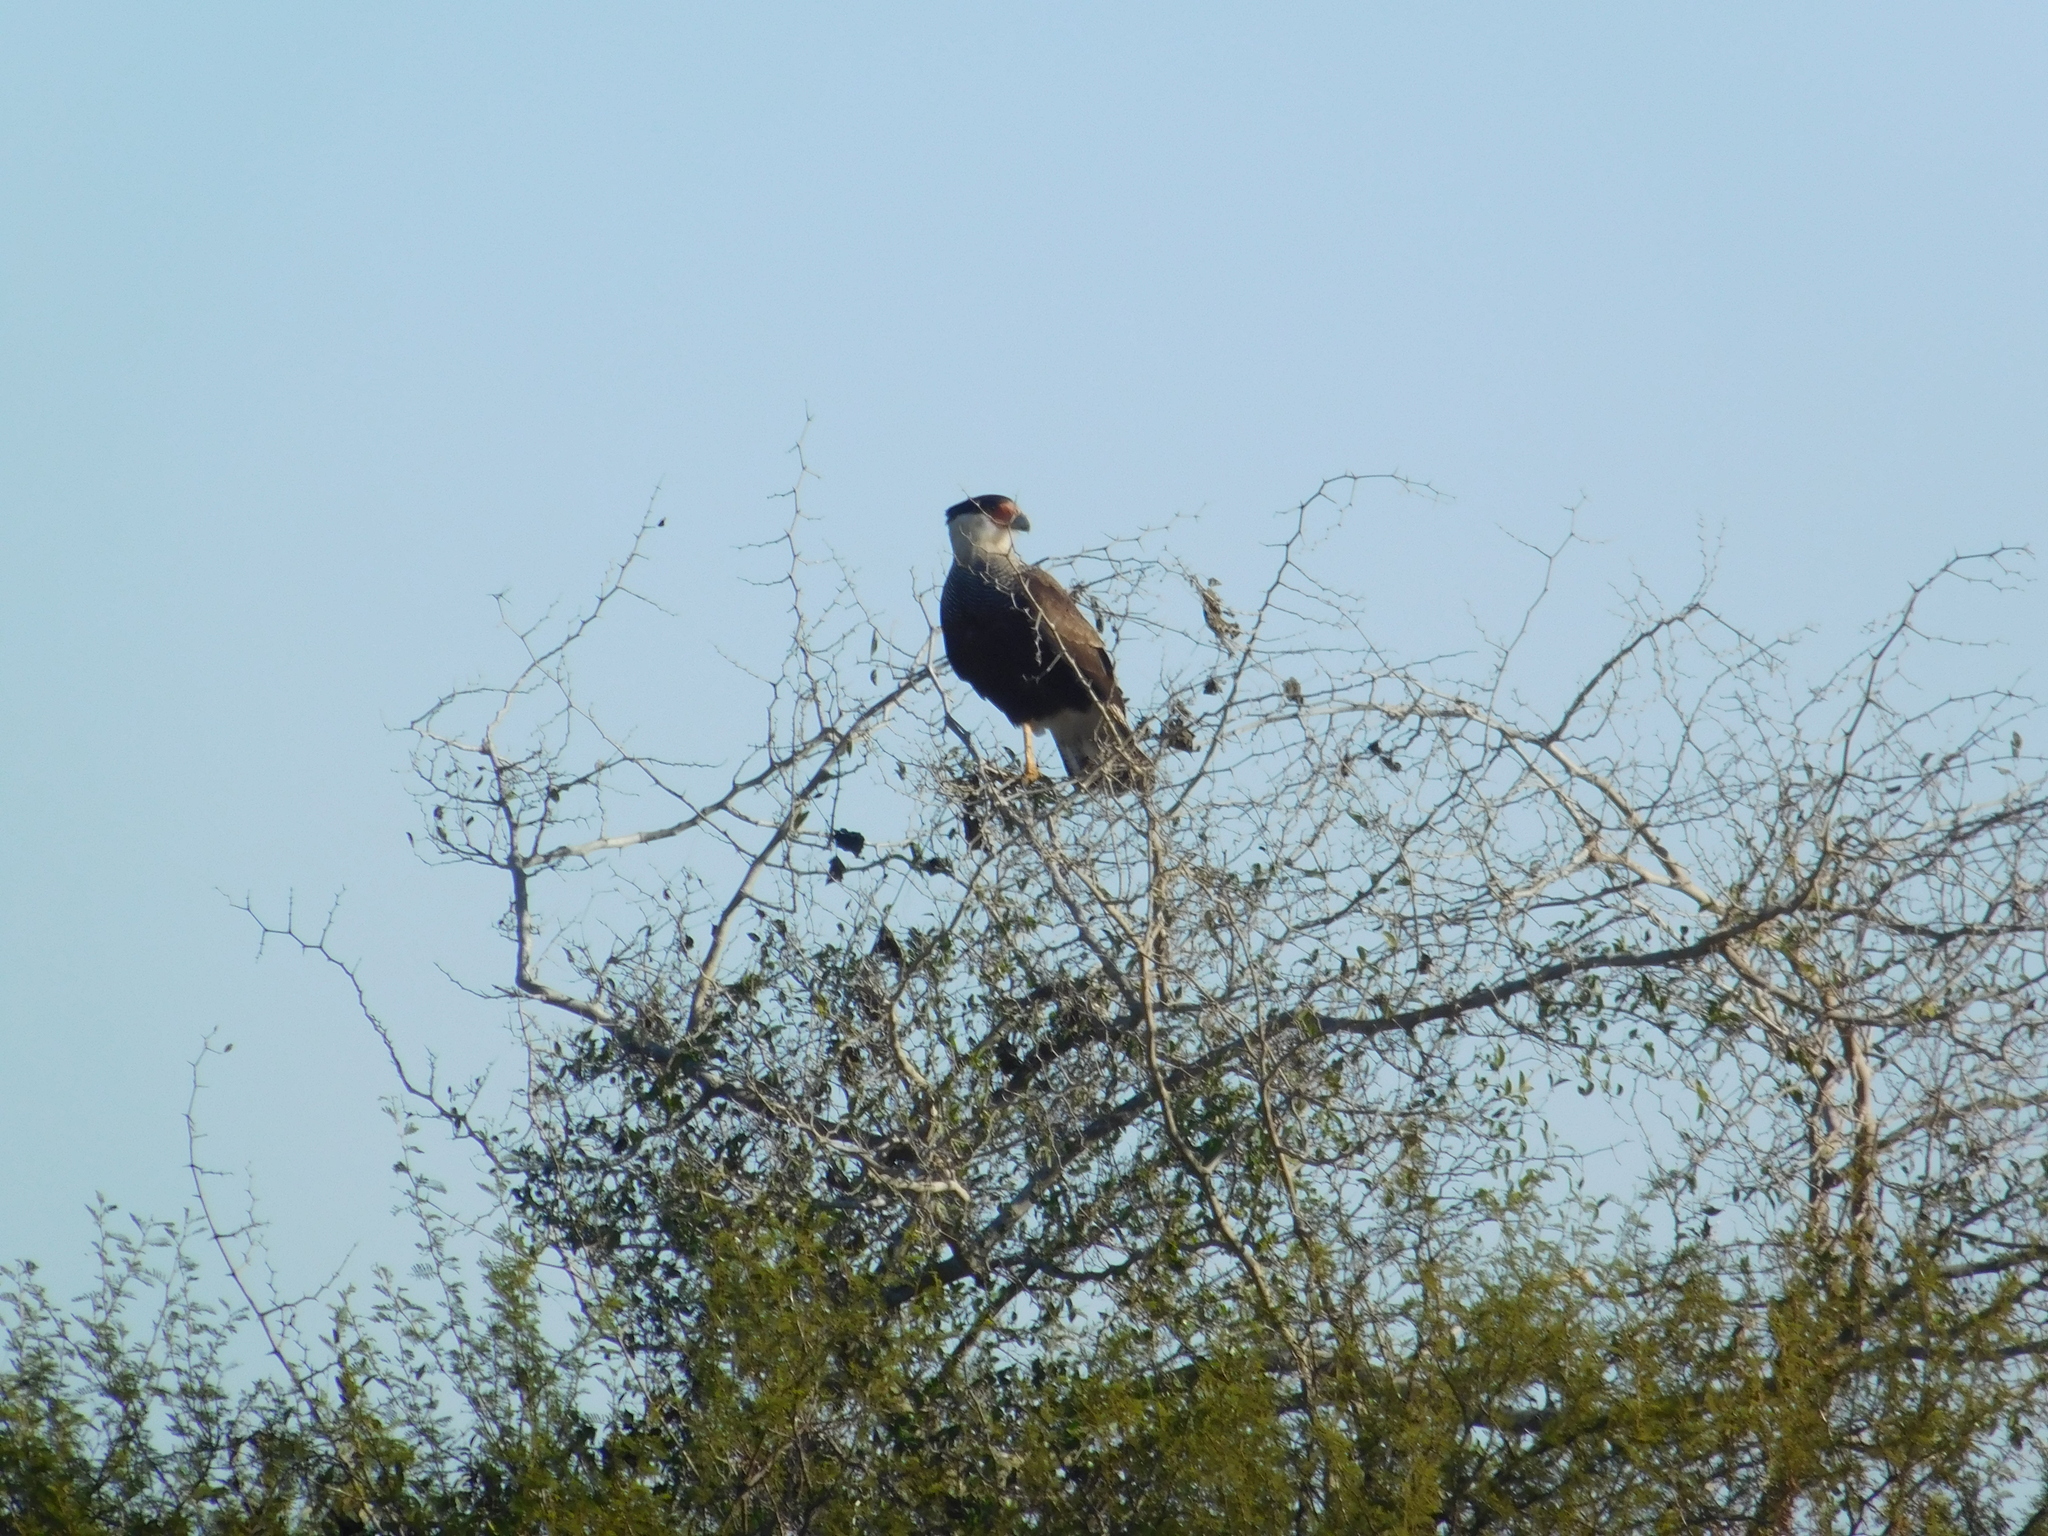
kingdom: Animalia
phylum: Chordata
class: Aves
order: Falconiformes
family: Falconidae
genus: Caracara
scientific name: Caracara plancus
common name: Southern caracara
